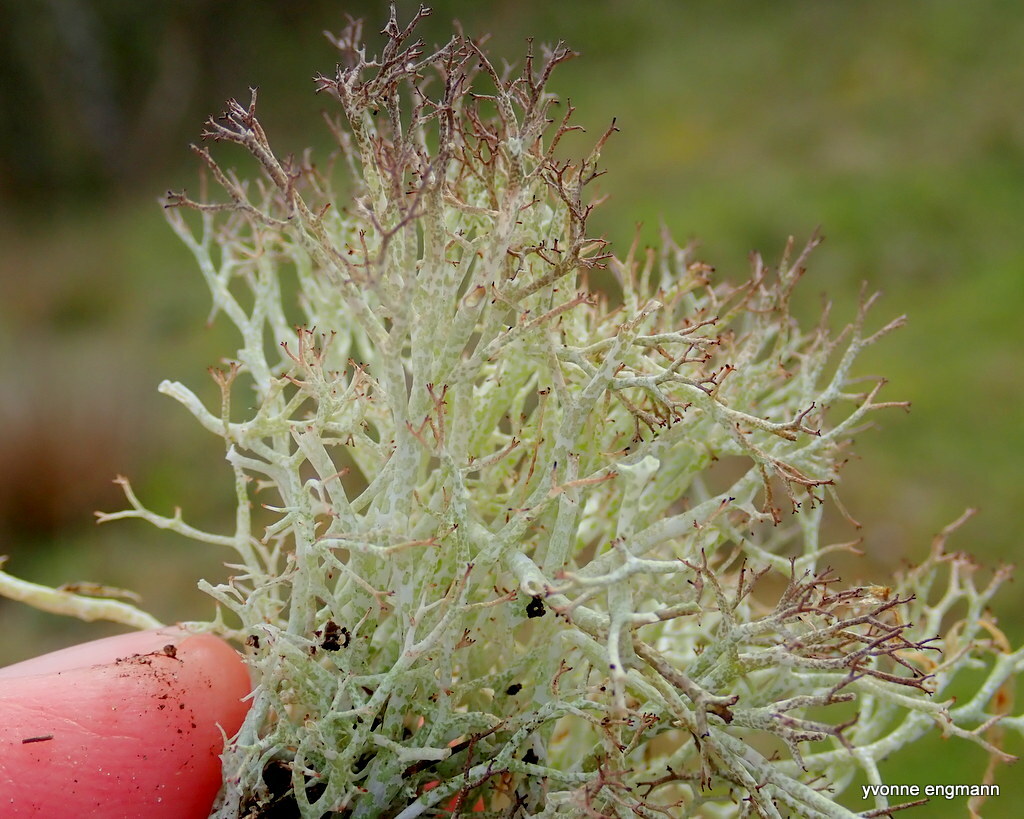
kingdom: Fungi
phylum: Ascomycota
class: Lecanoromycetes
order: Lecanorales
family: Cladoniaceae
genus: Cladonia
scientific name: Cladonia rangiformis
